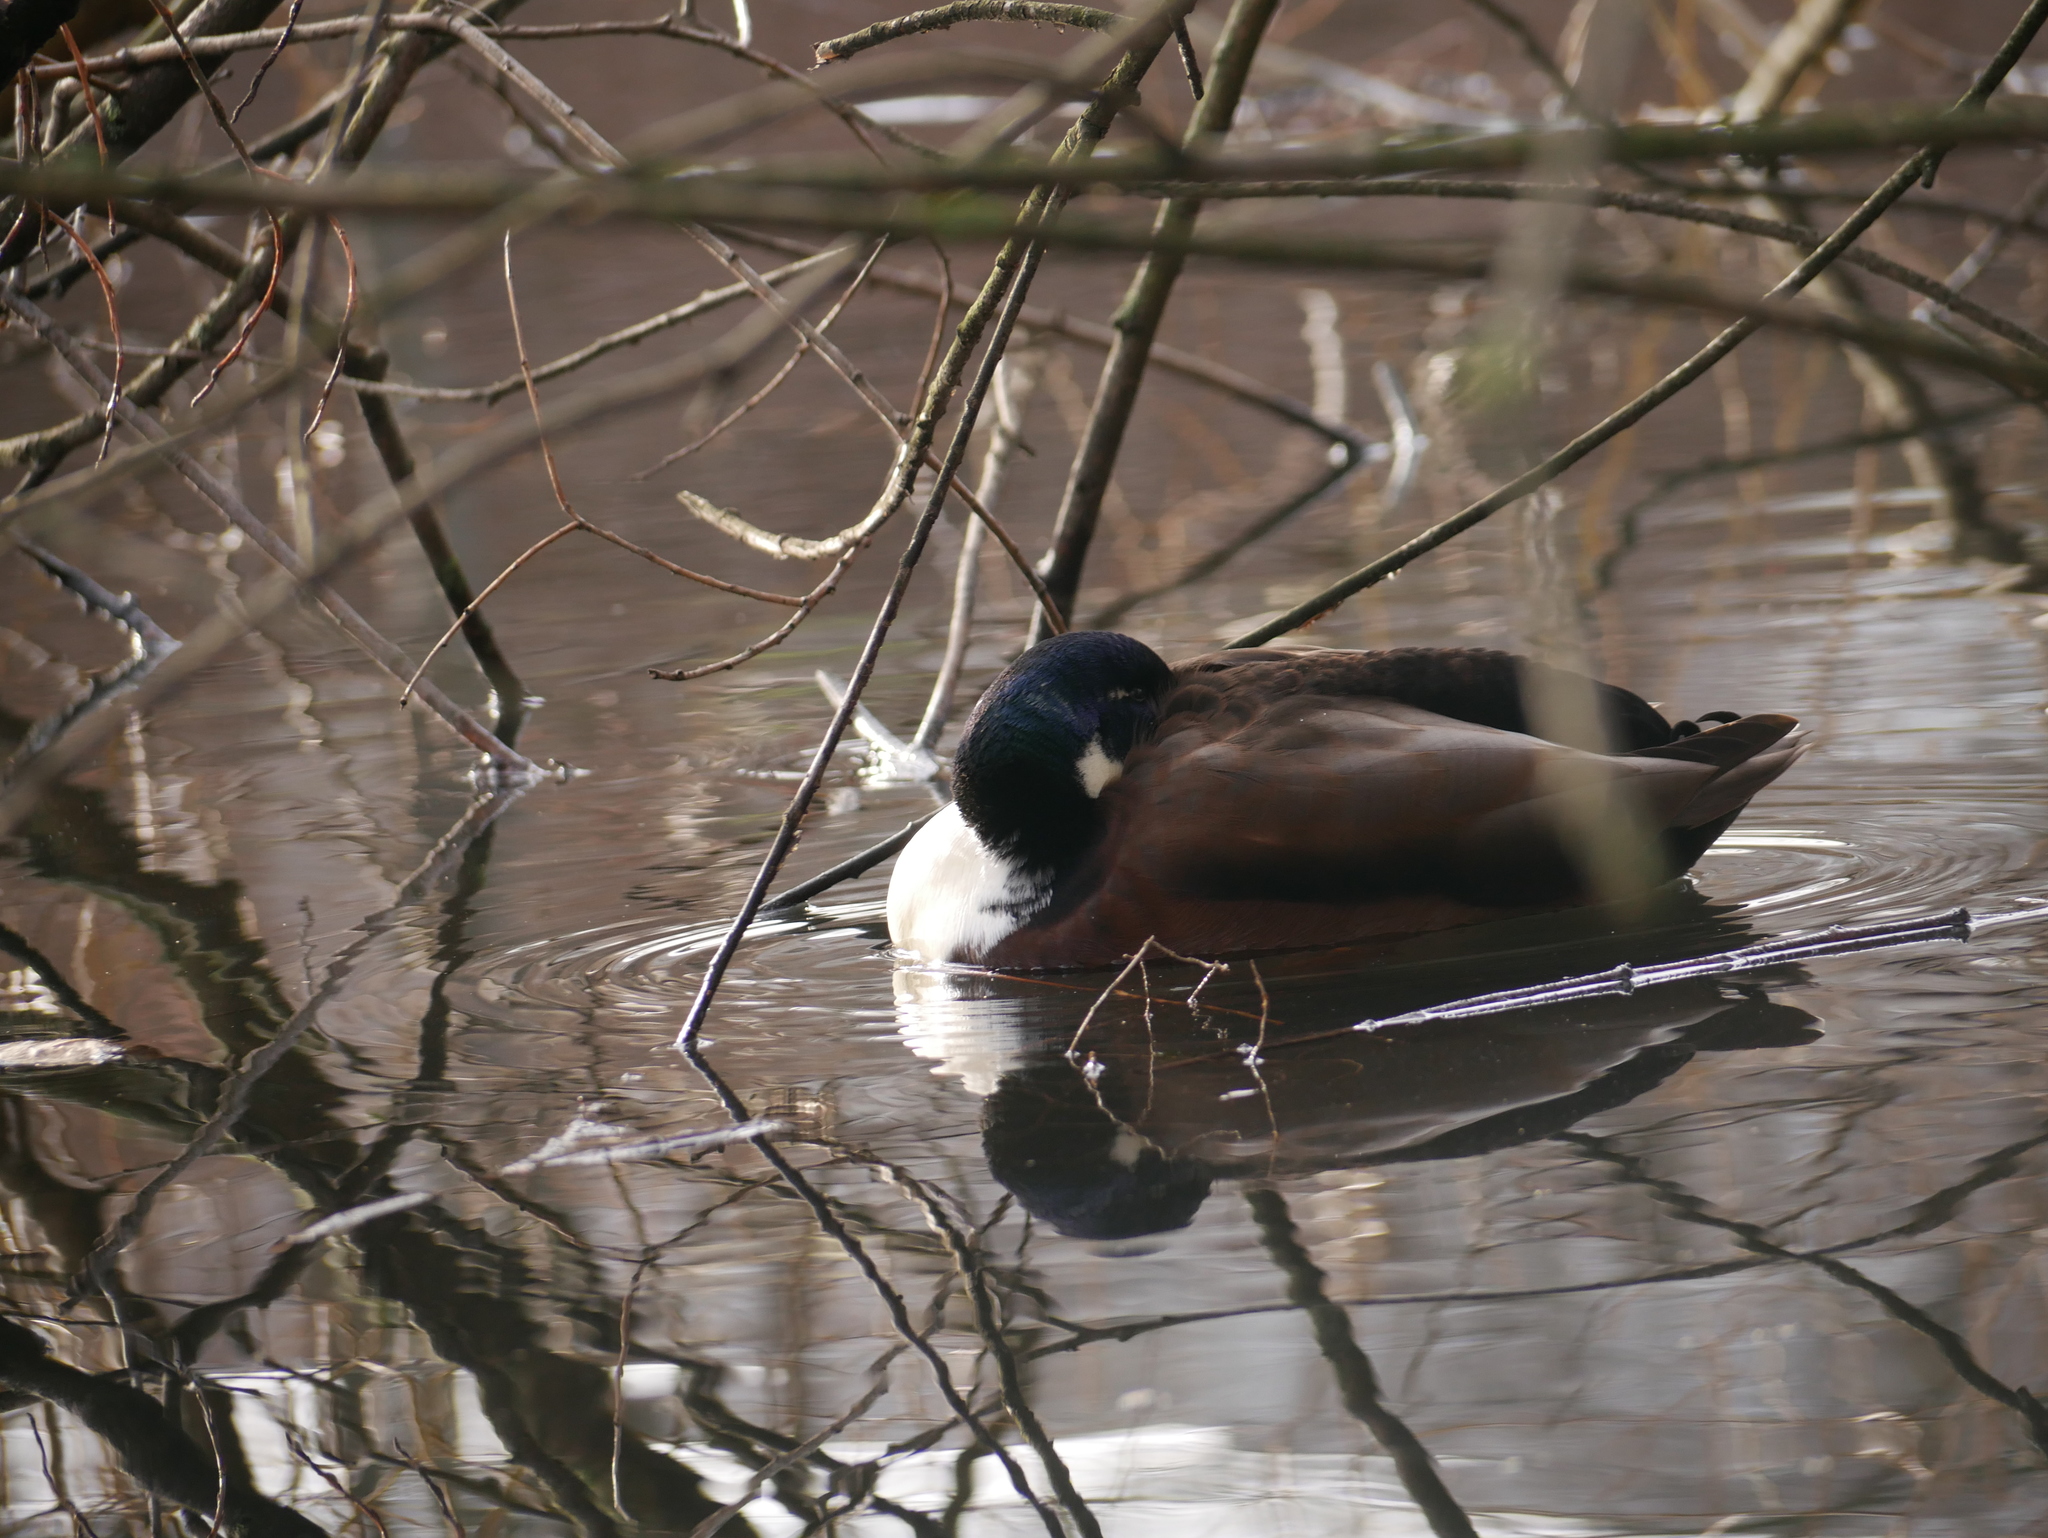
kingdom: Animalia
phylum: Chordata
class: Aves
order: Anseriformes
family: Anatidae
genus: Anas
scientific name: Anas platyrhynchos
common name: Mallard
